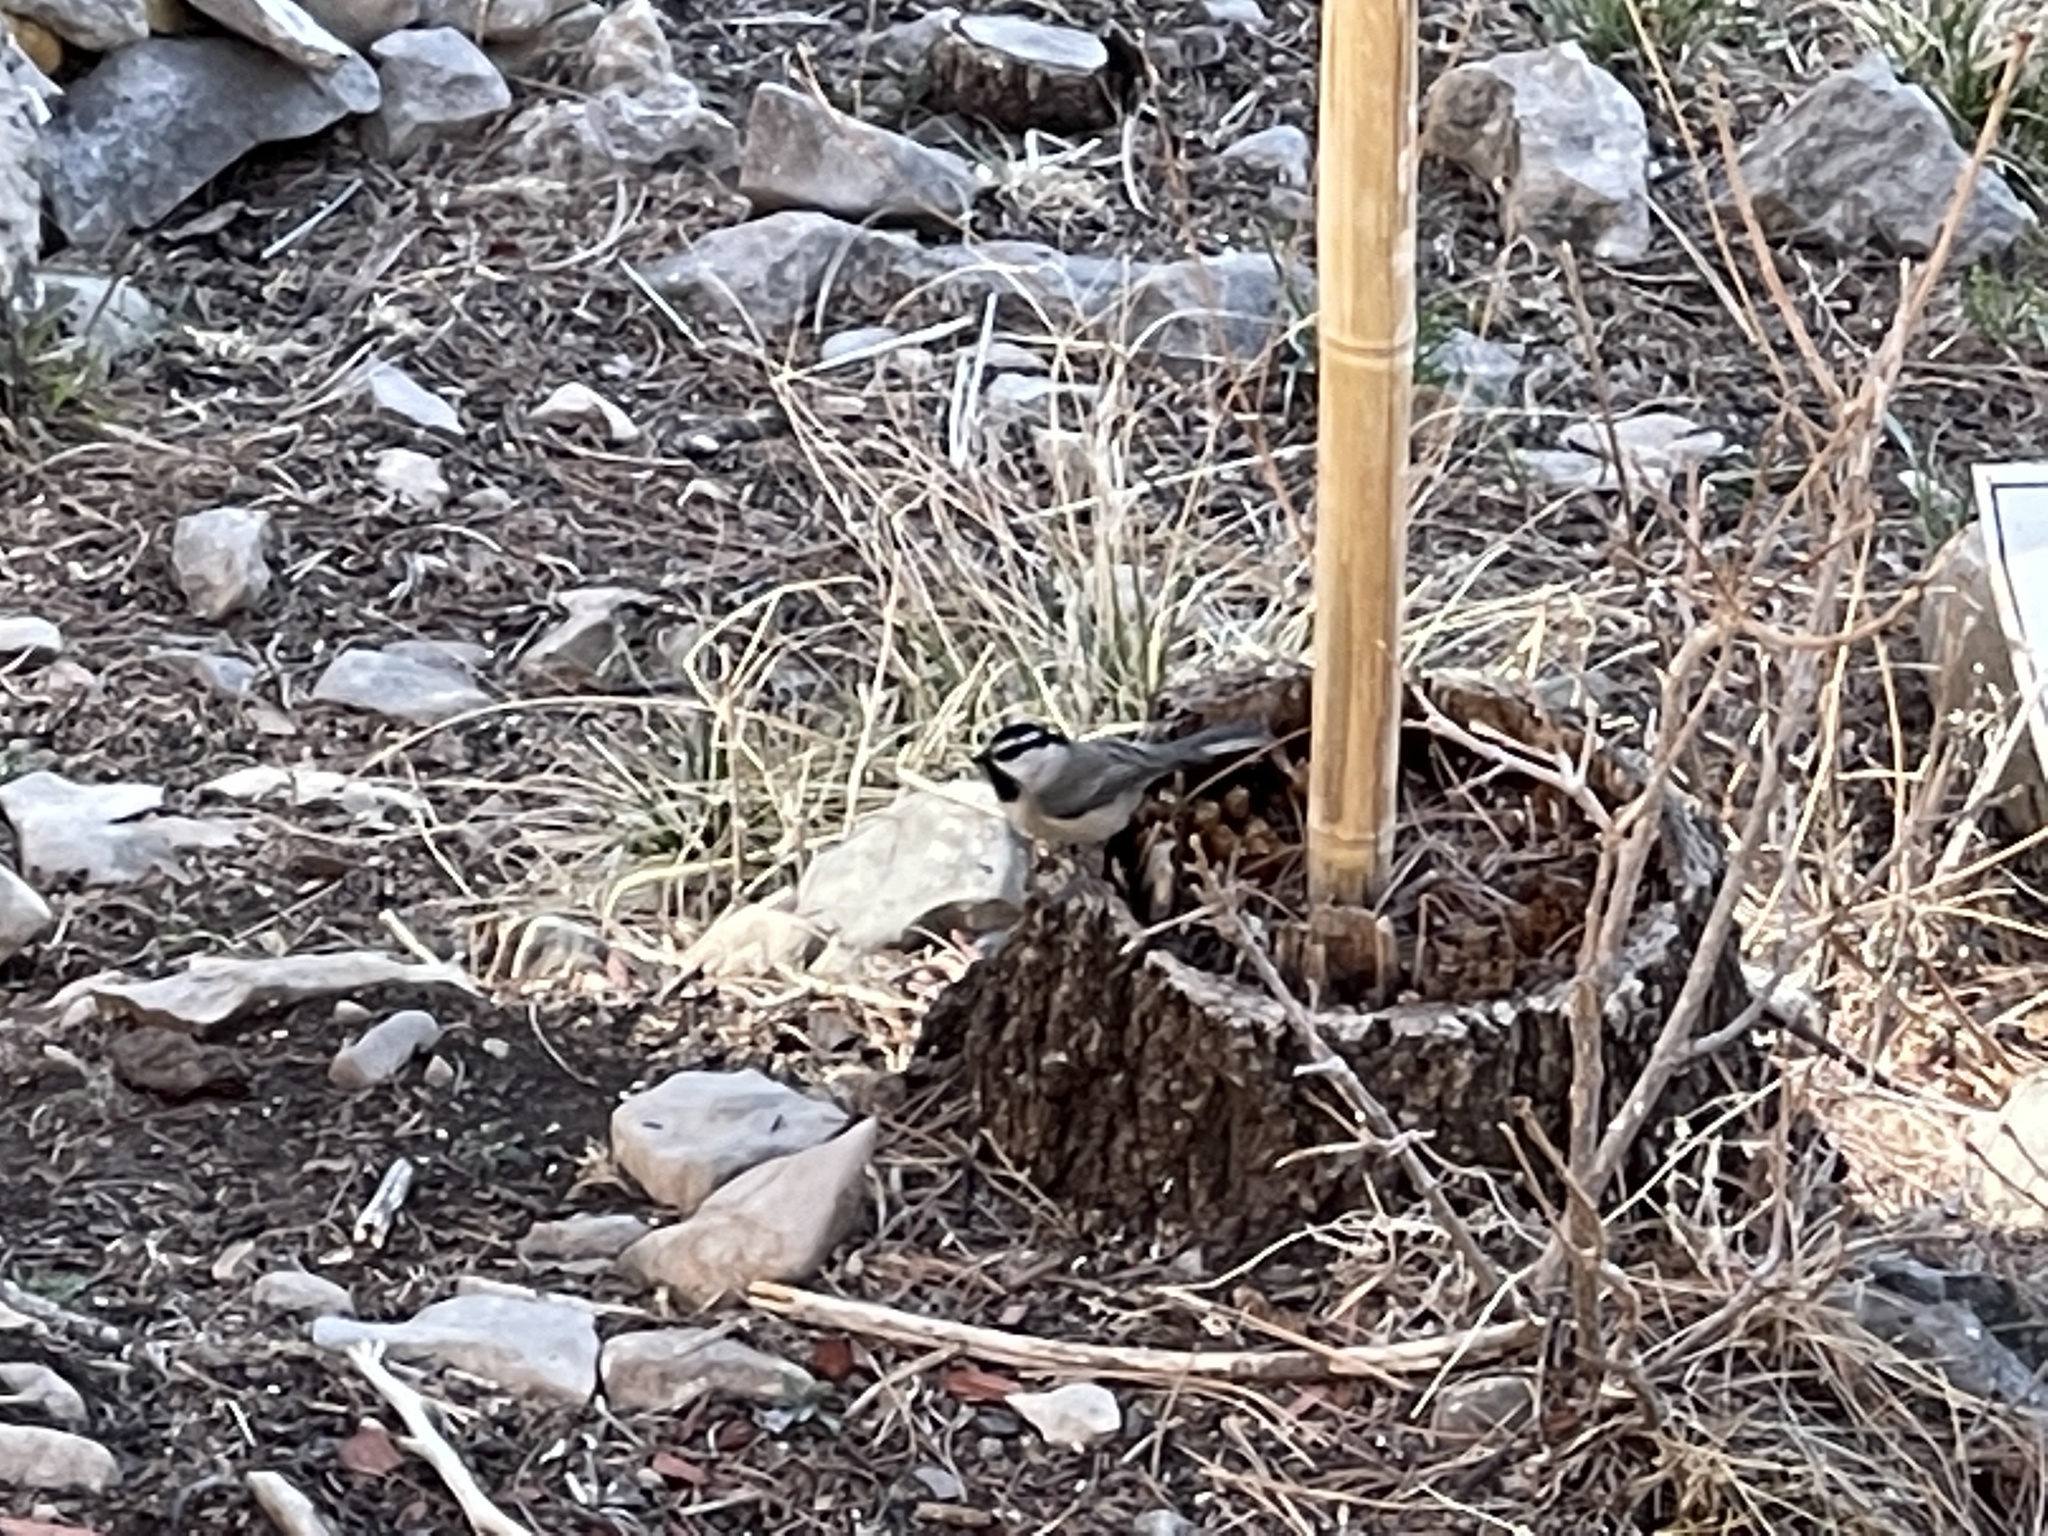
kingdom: Animalia
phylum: Chordata
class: Aves
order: Passeriformes
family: Paridae
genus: Poecile
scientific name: Poecile gambeli
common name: Mountain chickadee
